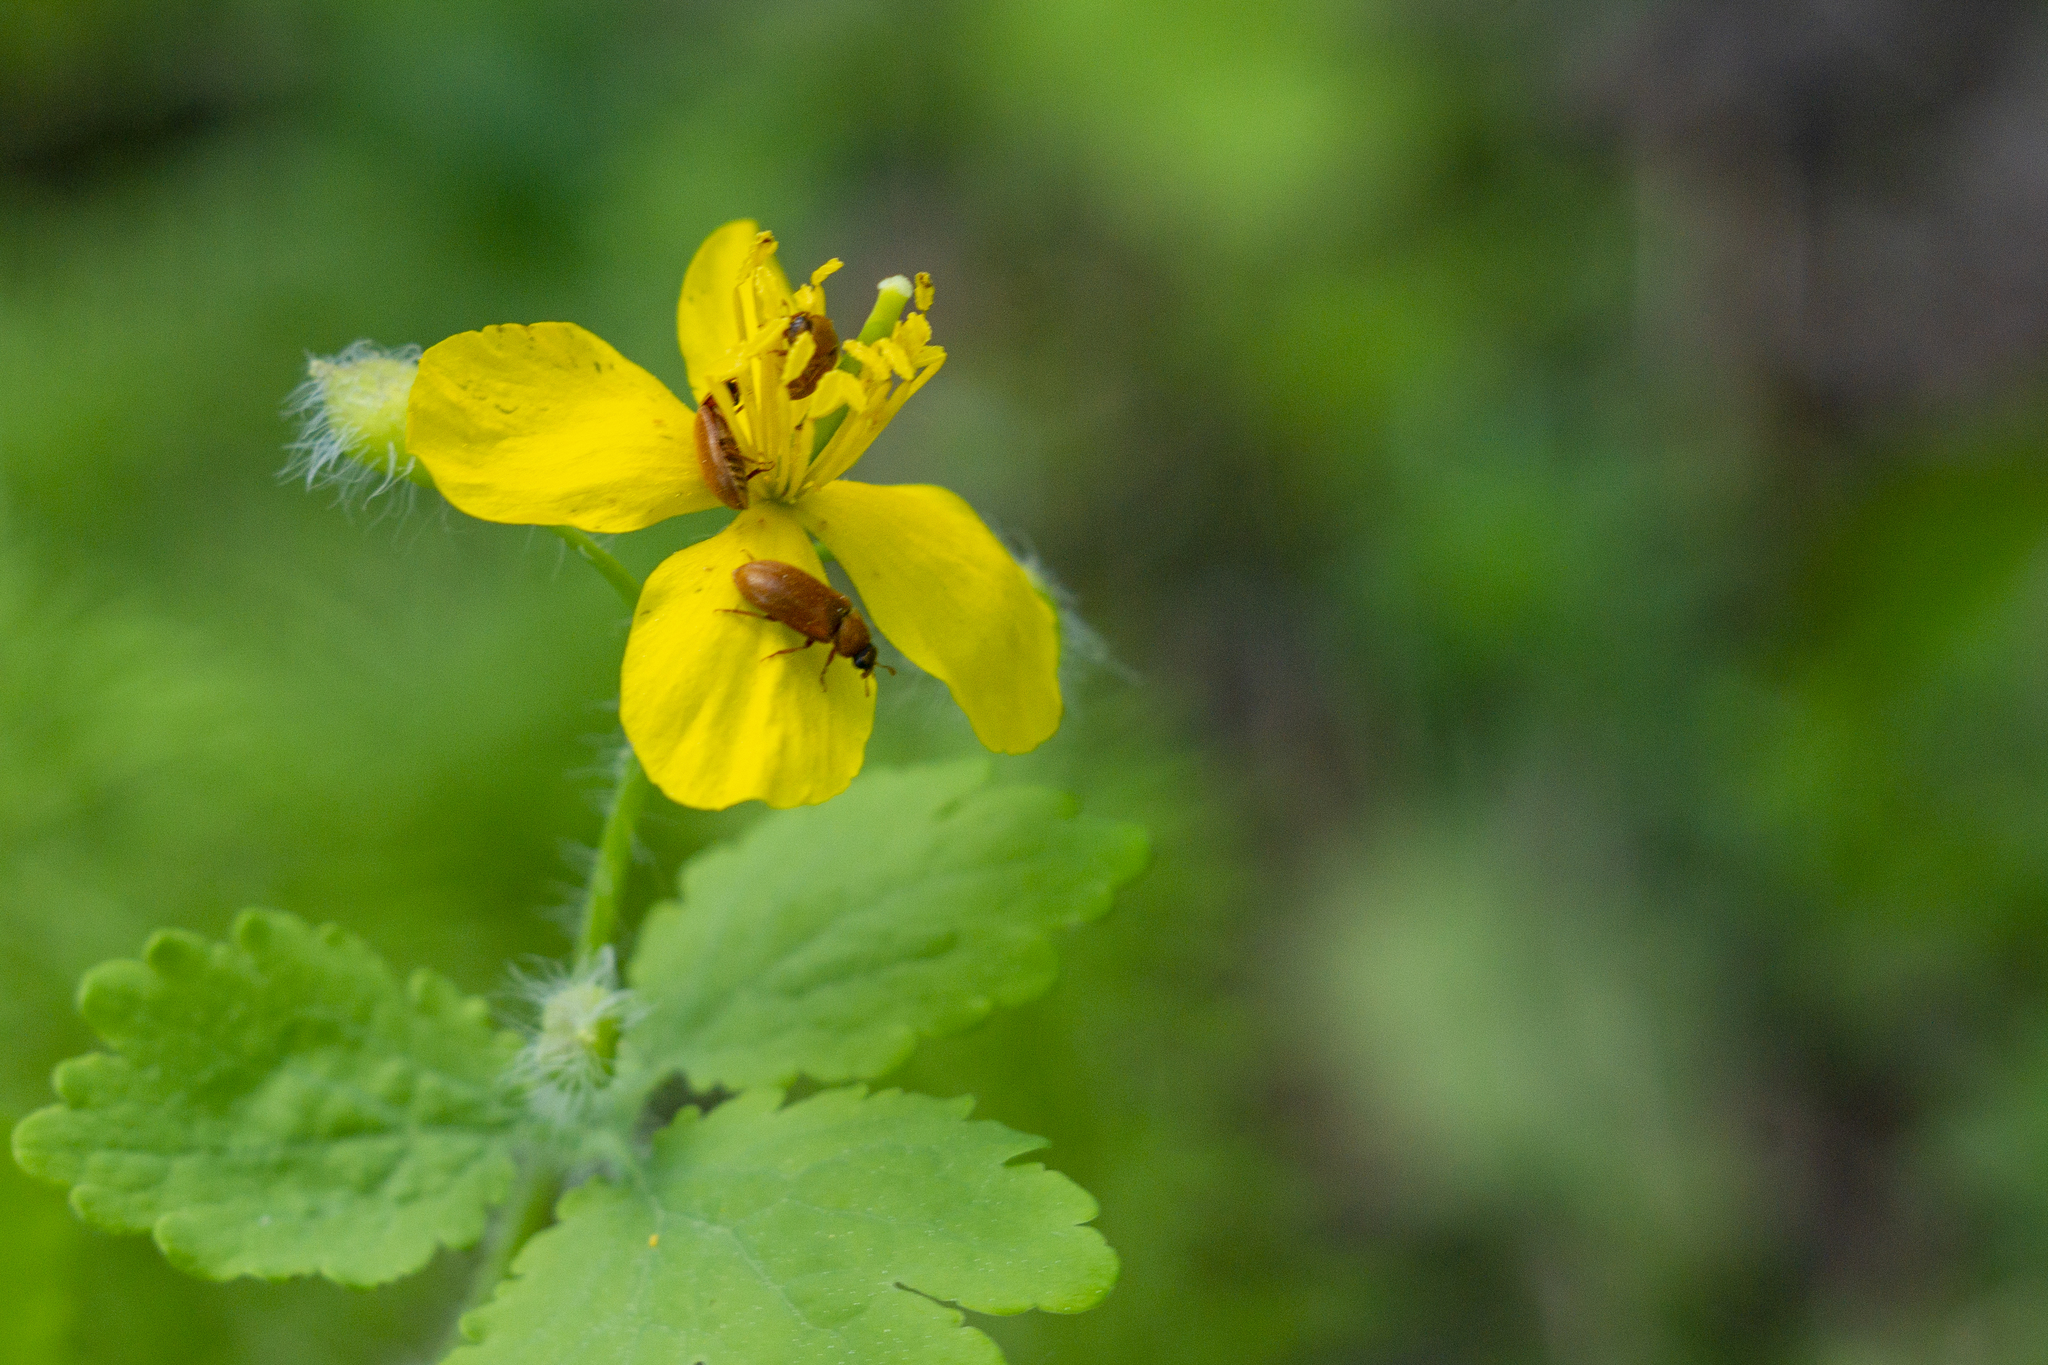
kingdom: Plantae
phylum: Tracheophyta
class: Magnoliopsida
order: Ranunculales
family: Papaveraceae
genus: Chelidonium
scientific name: Chelidonium majus
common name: Greater celandine
